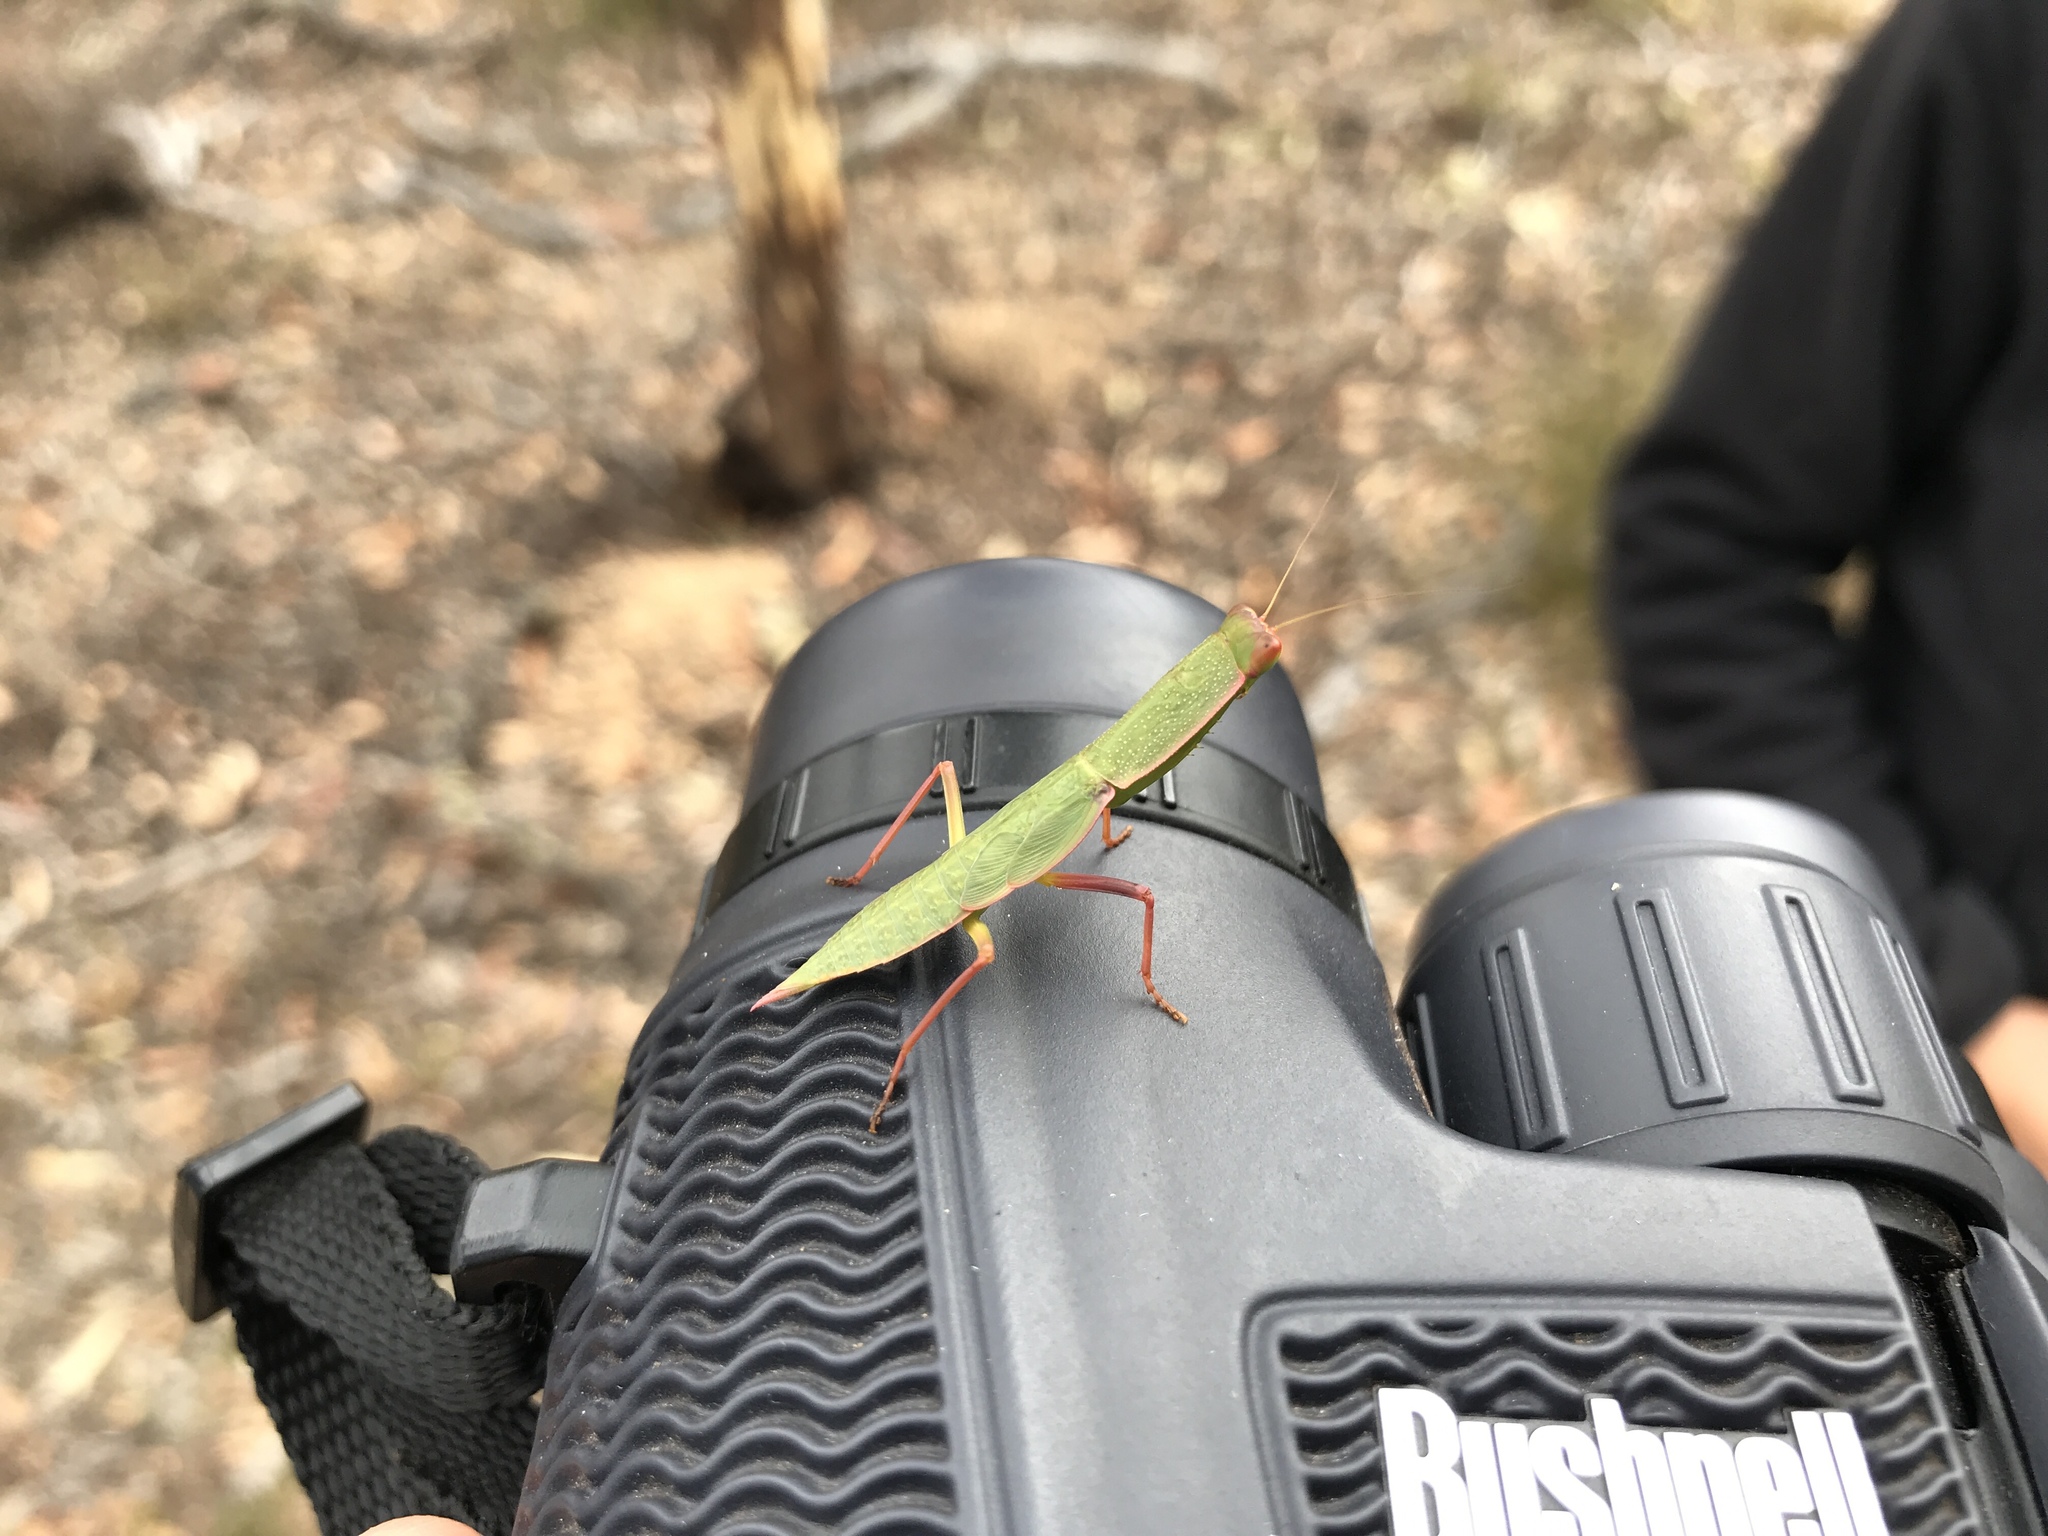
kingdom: Animalia
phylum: Arthropoda
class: Insecta
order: Mantodea
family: Mantidae
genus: Orthodera
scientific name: Orthodera ministralis
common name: Mantis
